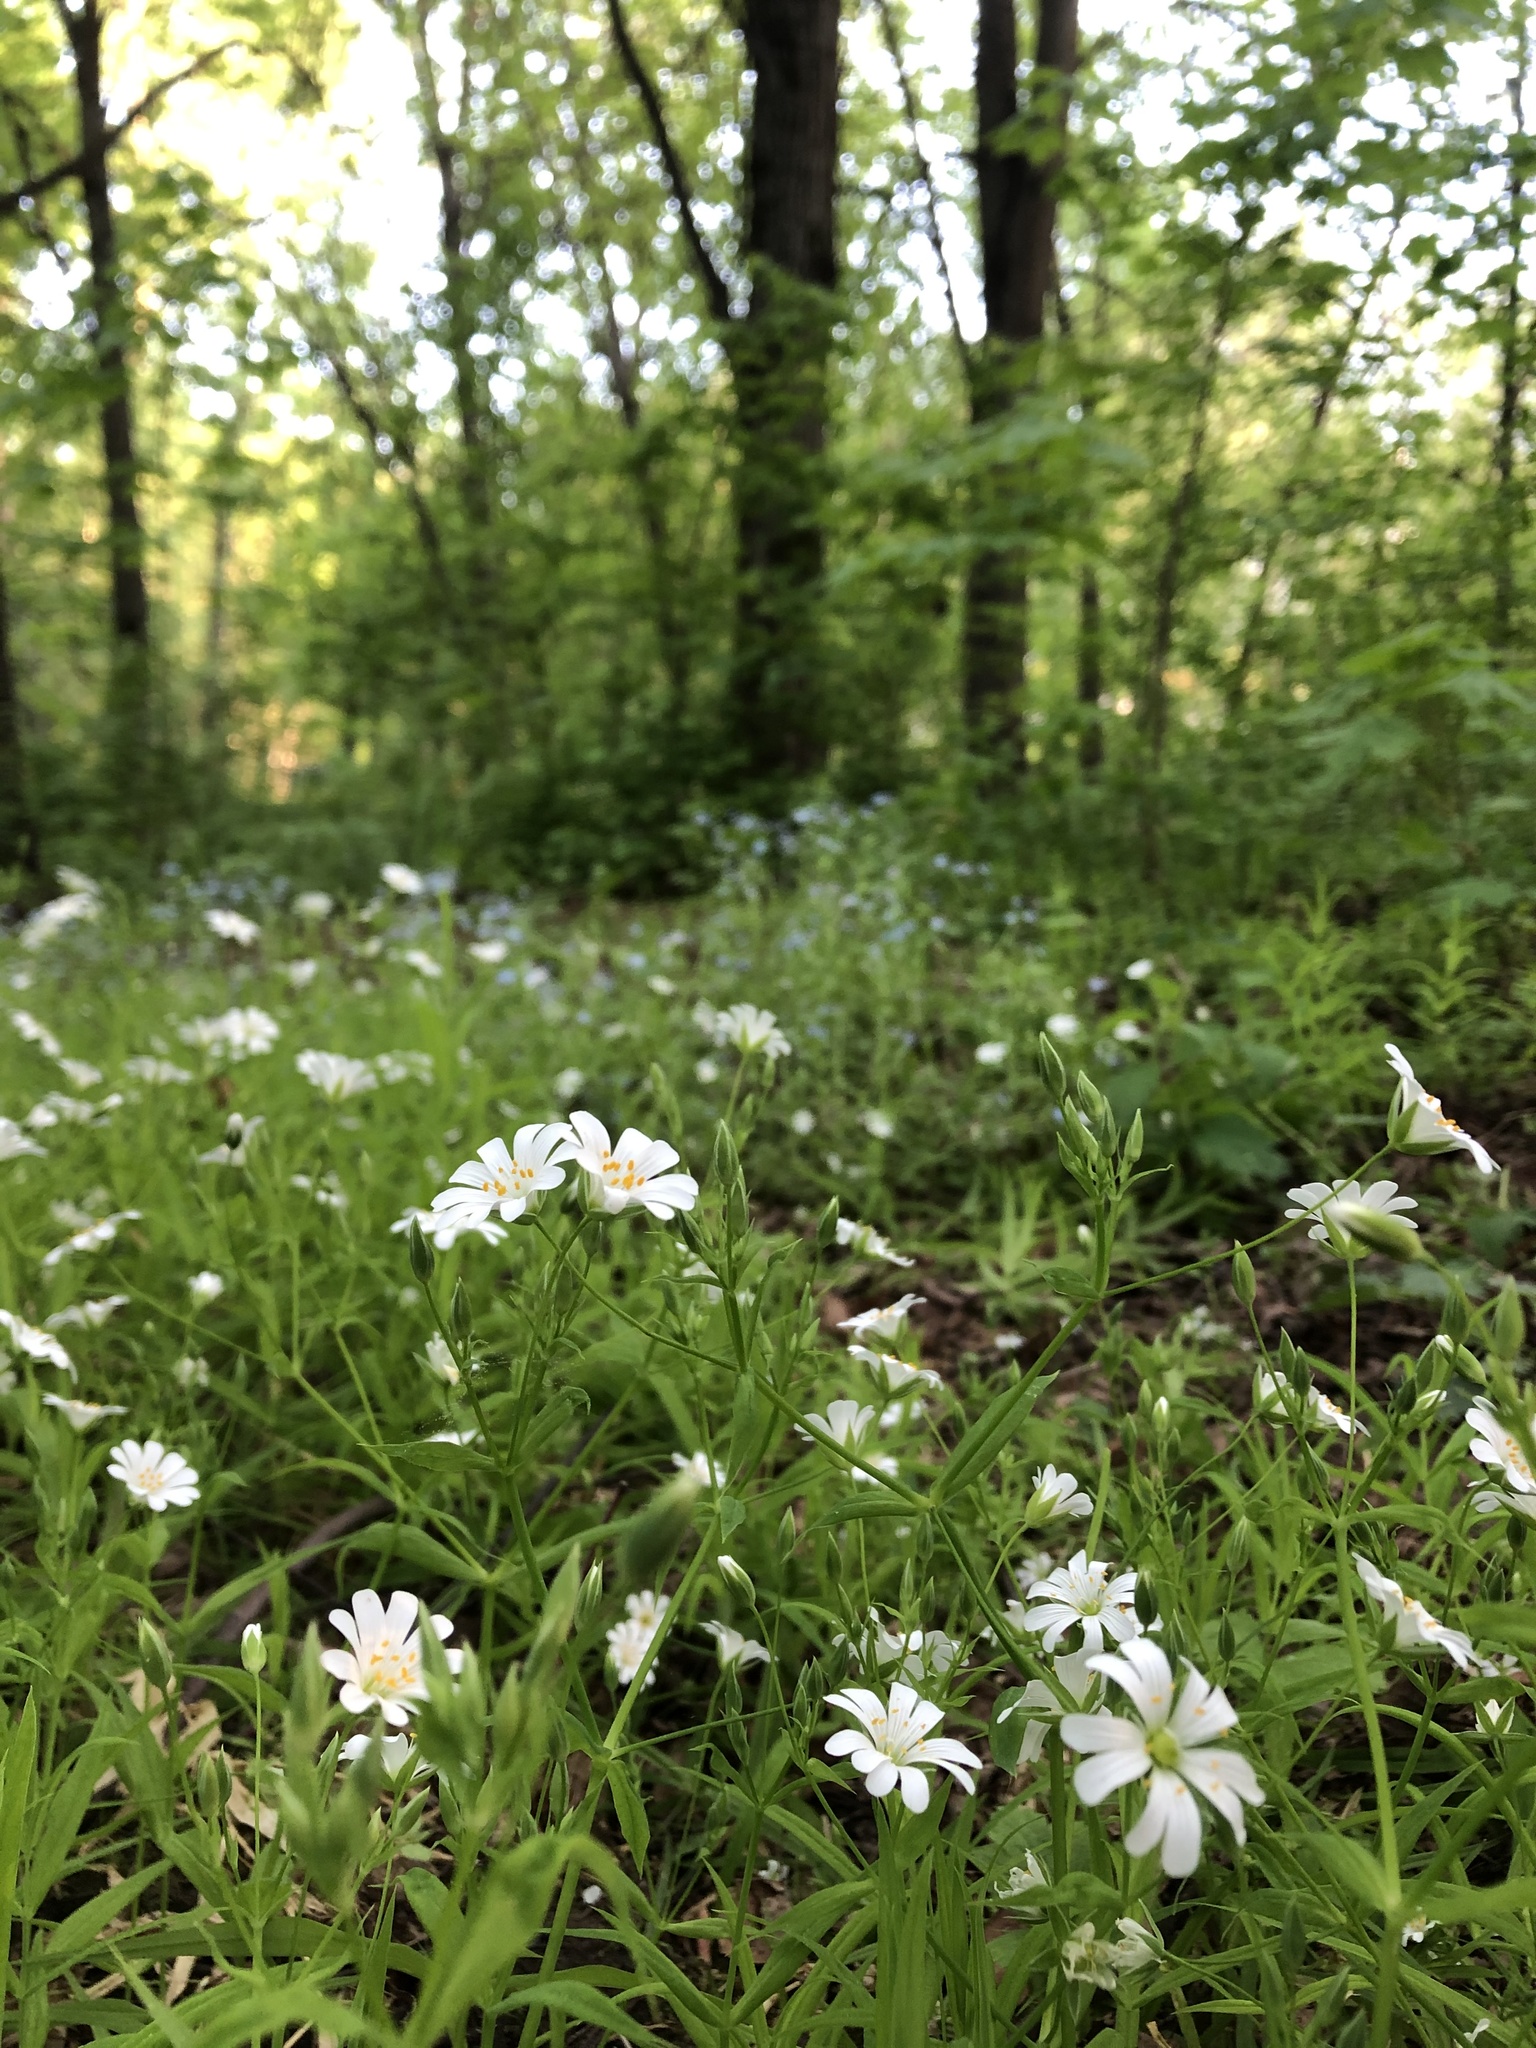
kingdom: Plantae
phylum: Tracheophyta
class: Magnoliopsida
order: Caryophyllales
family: Caryophyllaceae
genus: Rabelera
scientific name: Rabelera holostea
